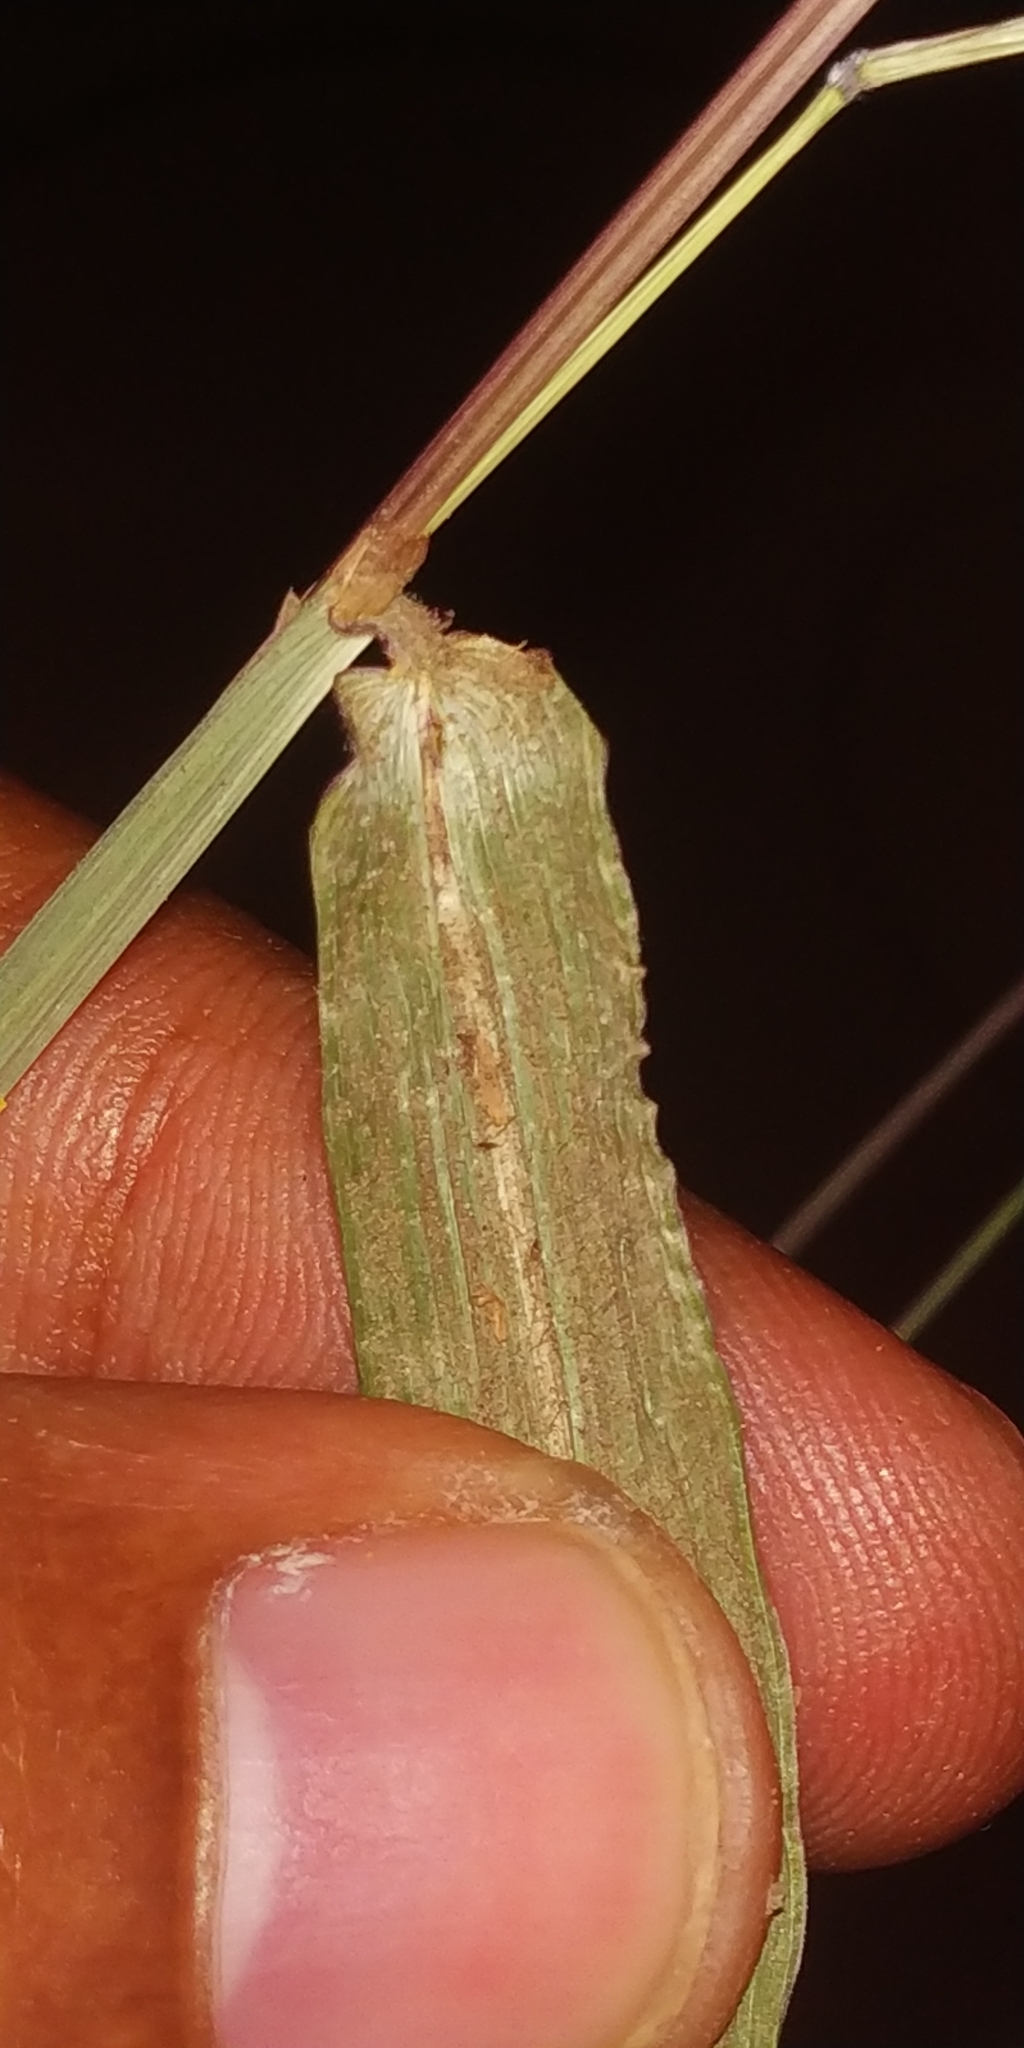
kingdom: Plantae
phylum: Tracheophyta
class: Liliopsida
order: Poales
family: Poaceae
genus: Ischaemum
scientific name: Ischaemum barbatum
